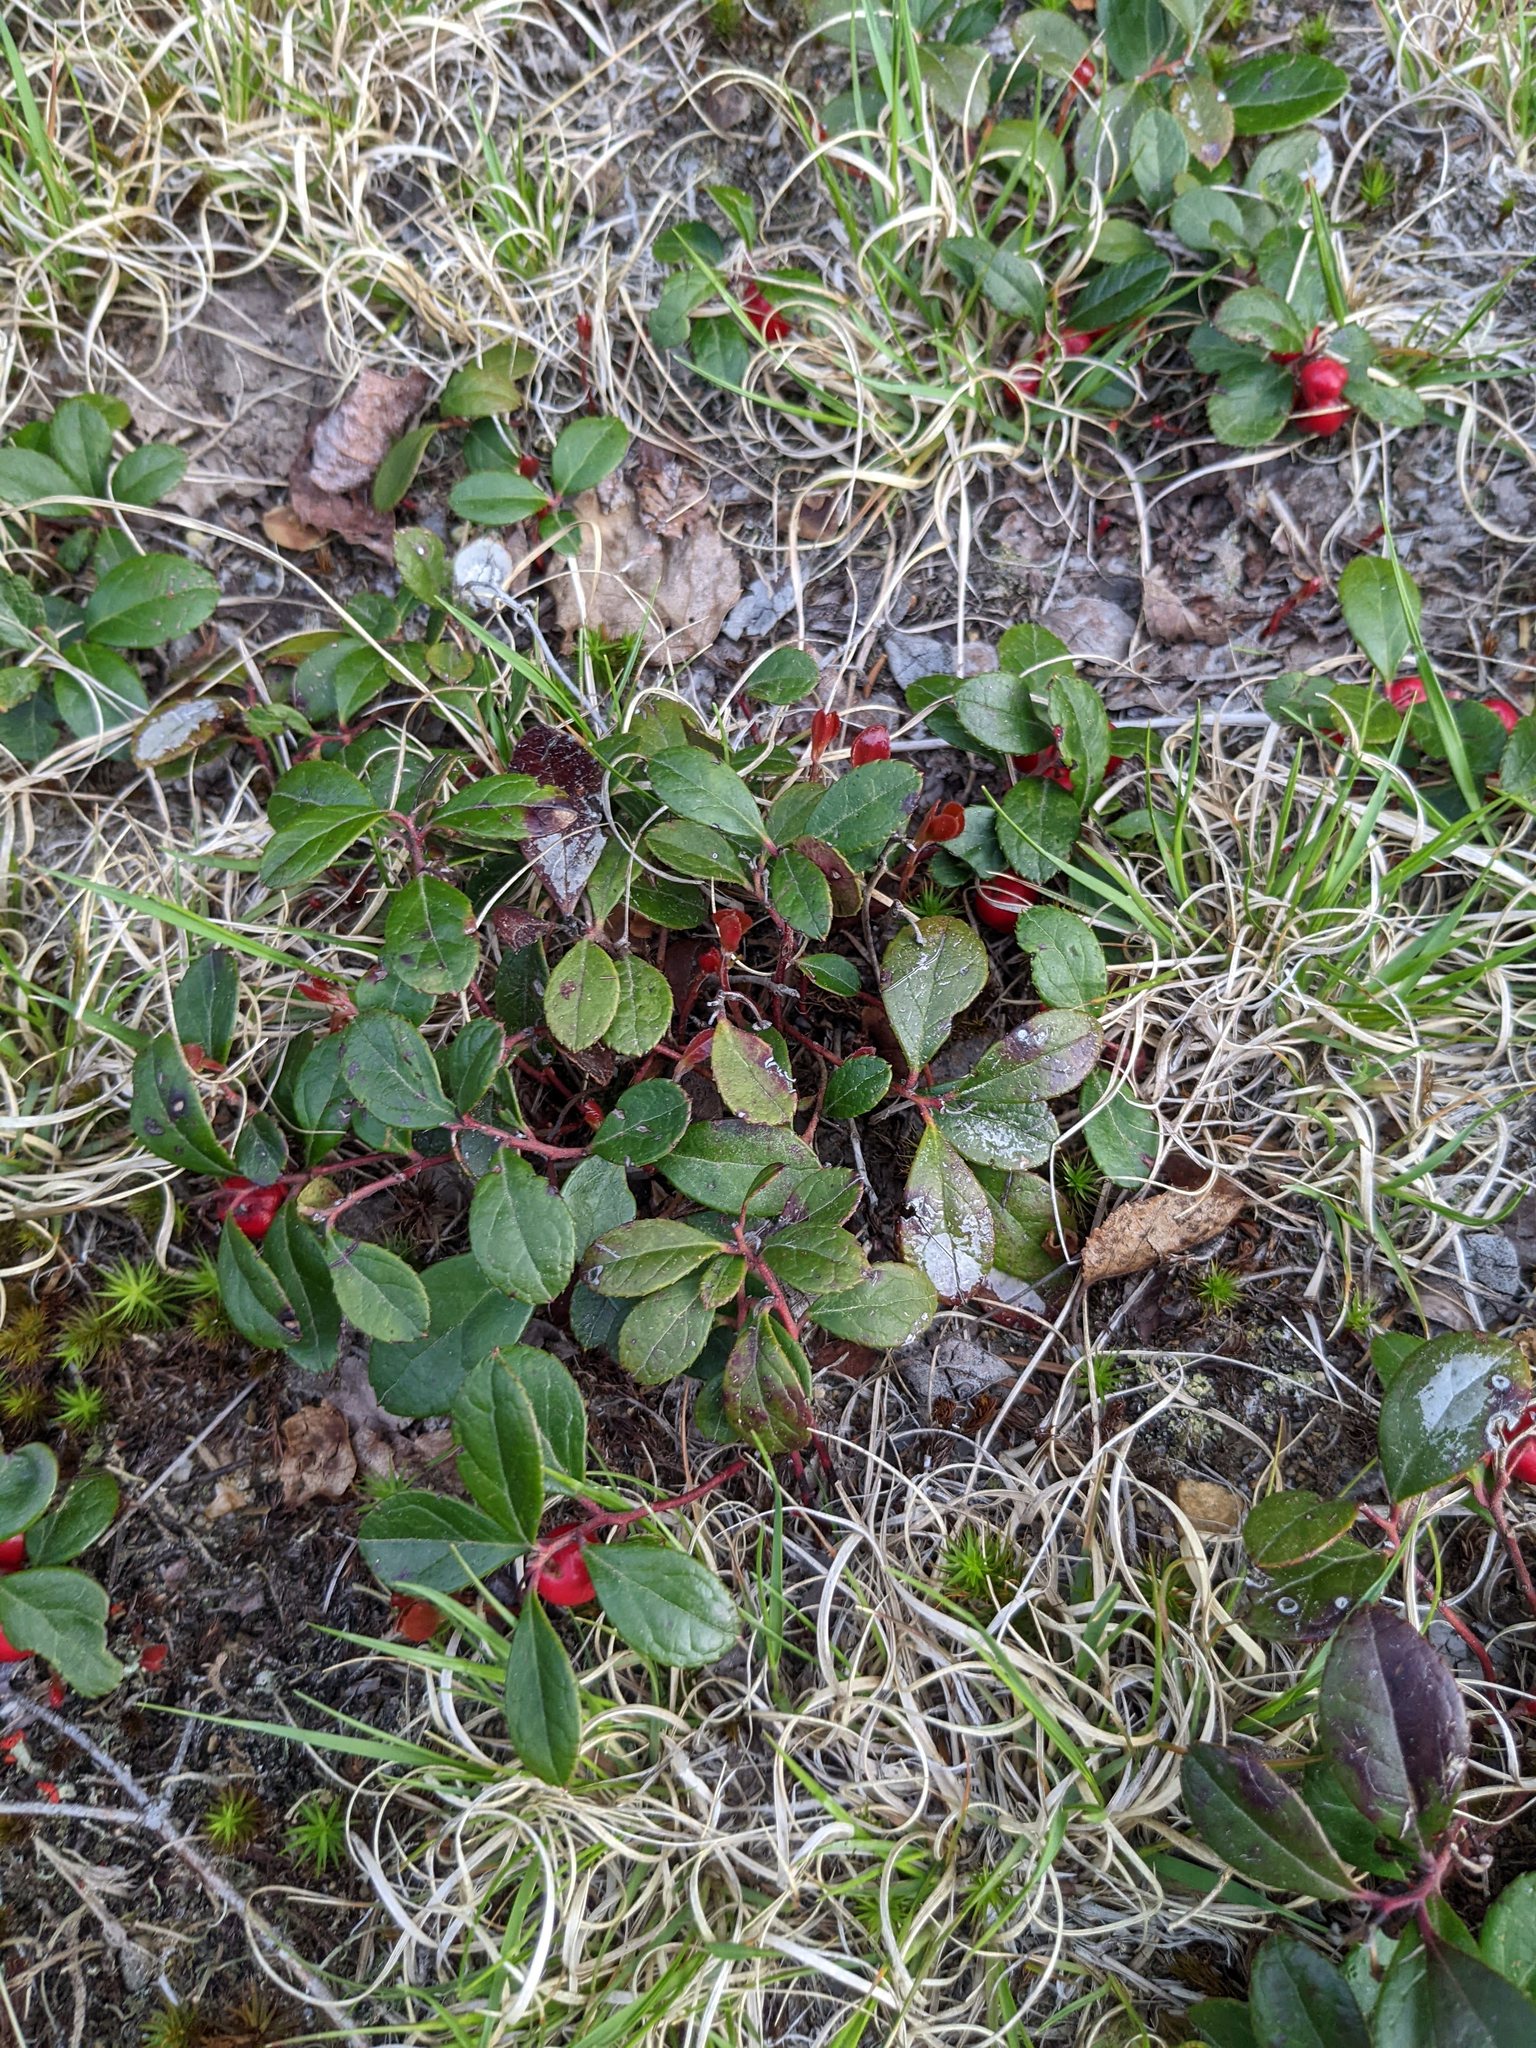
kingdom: Plantae
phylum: Tracheophyta
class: Magnoliopsida
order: Ericales
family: Ericaceae
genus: Gaultheria
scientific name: Gaultheria procumbens
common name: Checkerberry
